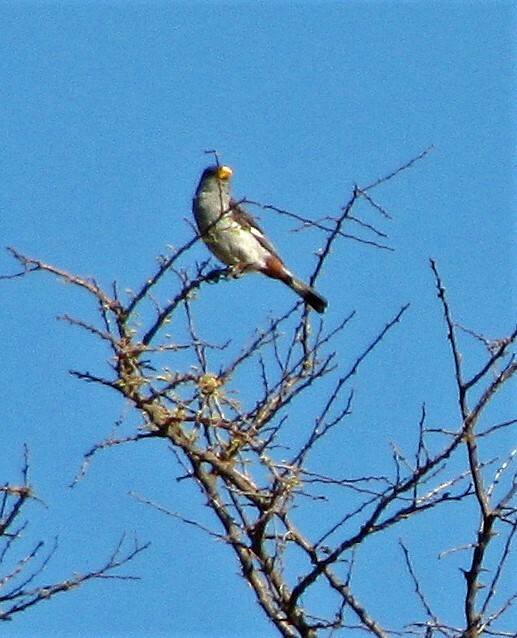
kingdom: Animalia
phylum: Chordata
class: Aves
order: Passeriformes
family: Thraupidae
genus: Catamenia
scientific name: Catamenia analis
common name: Band-tailed seedeater
